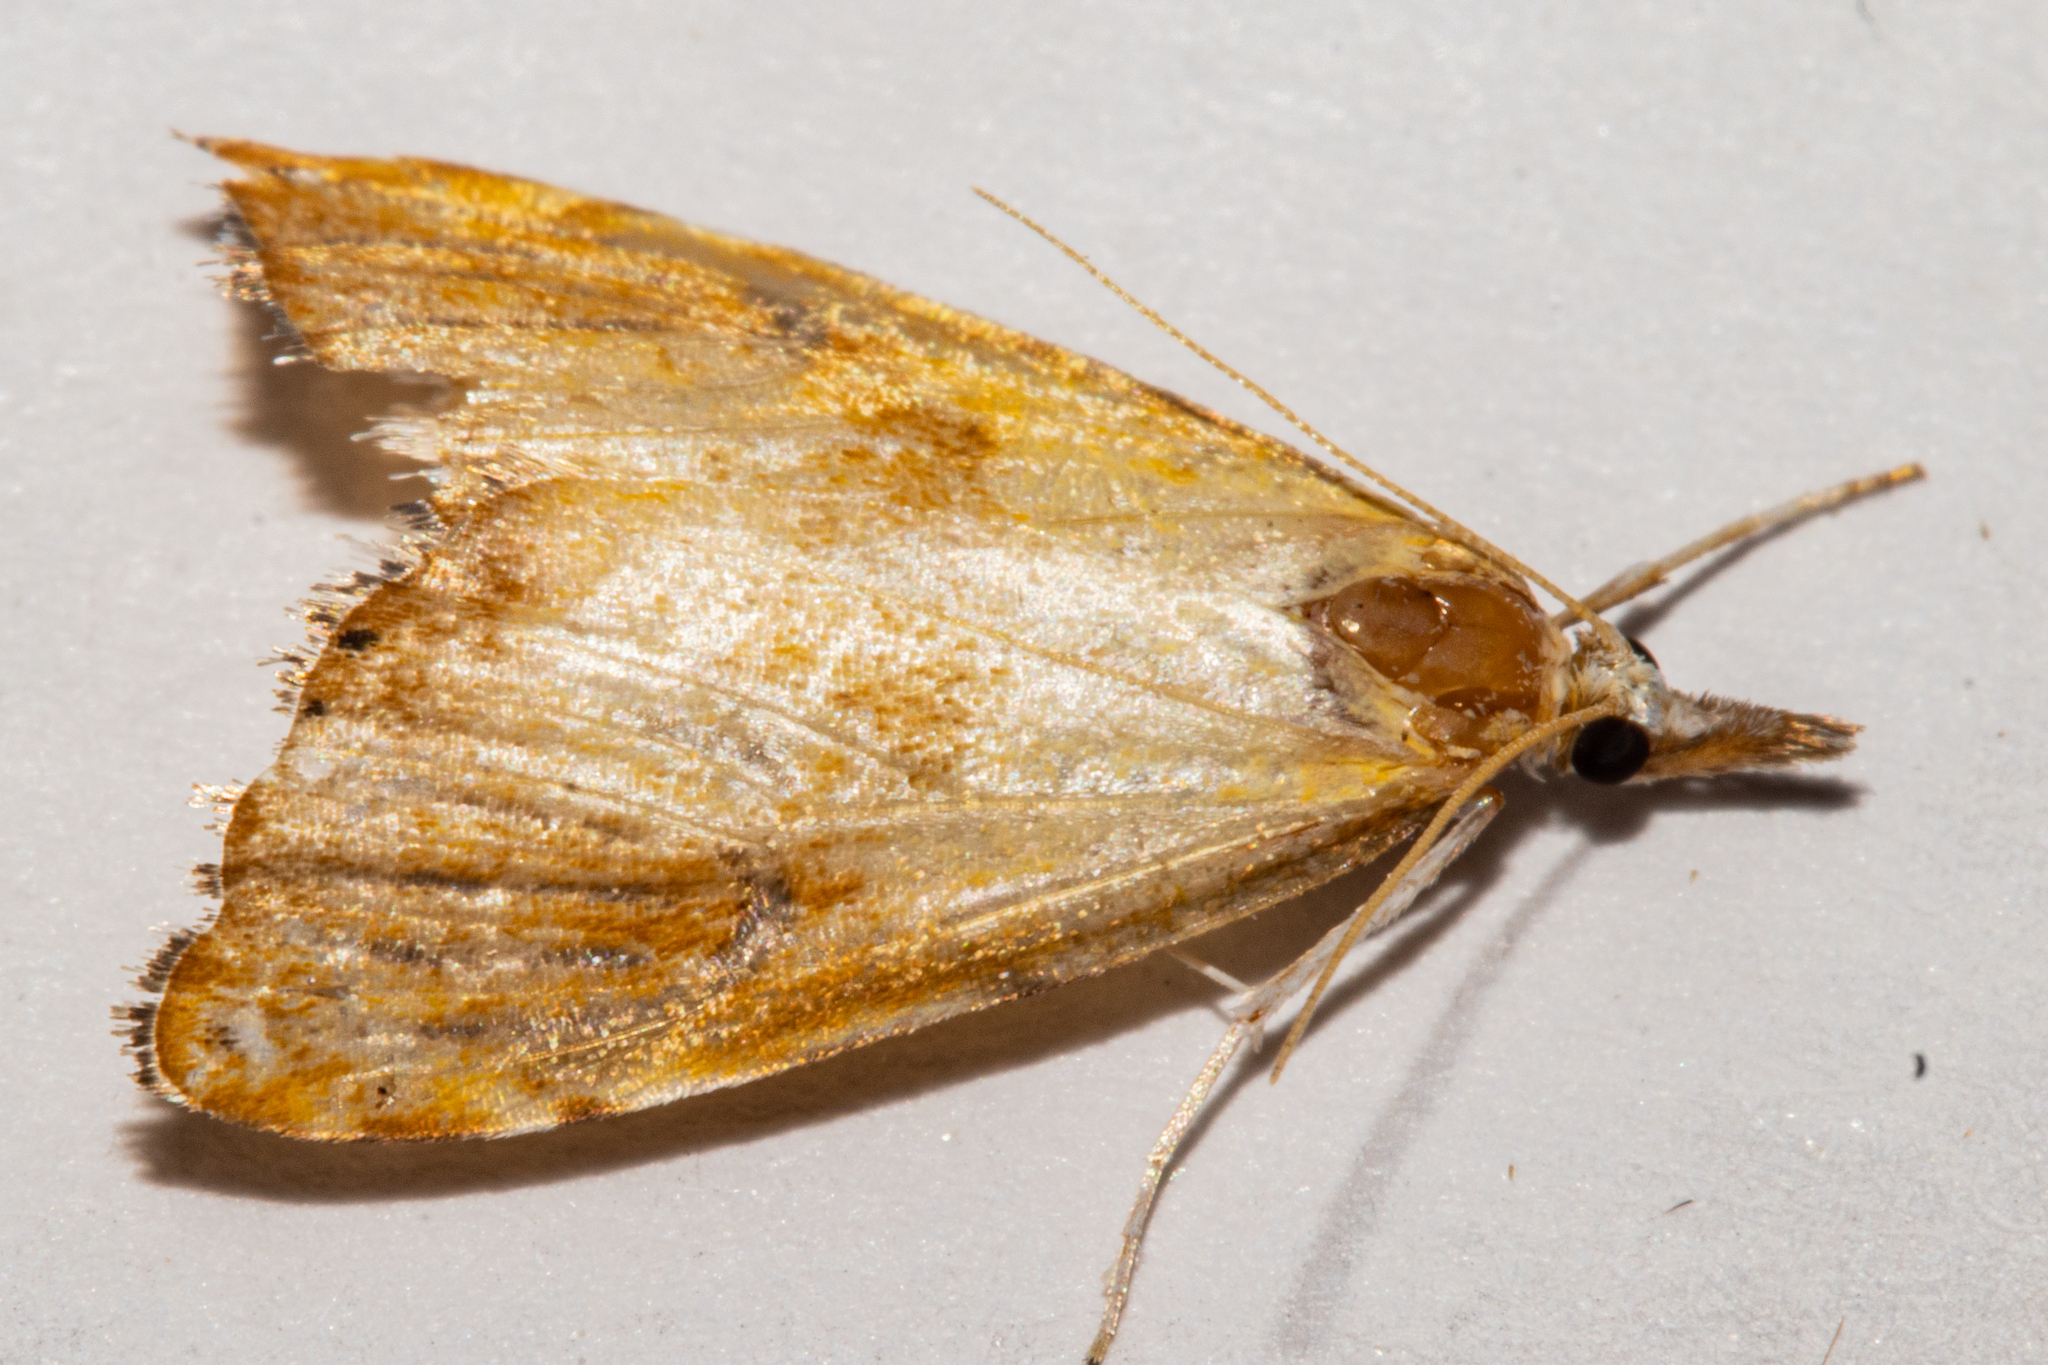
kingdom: Animalia
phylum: Arthropoda
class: Insecta
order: Lepidoptera
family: Crambidae
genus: Glaucocharis
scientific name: Glaucocharis metallifera
